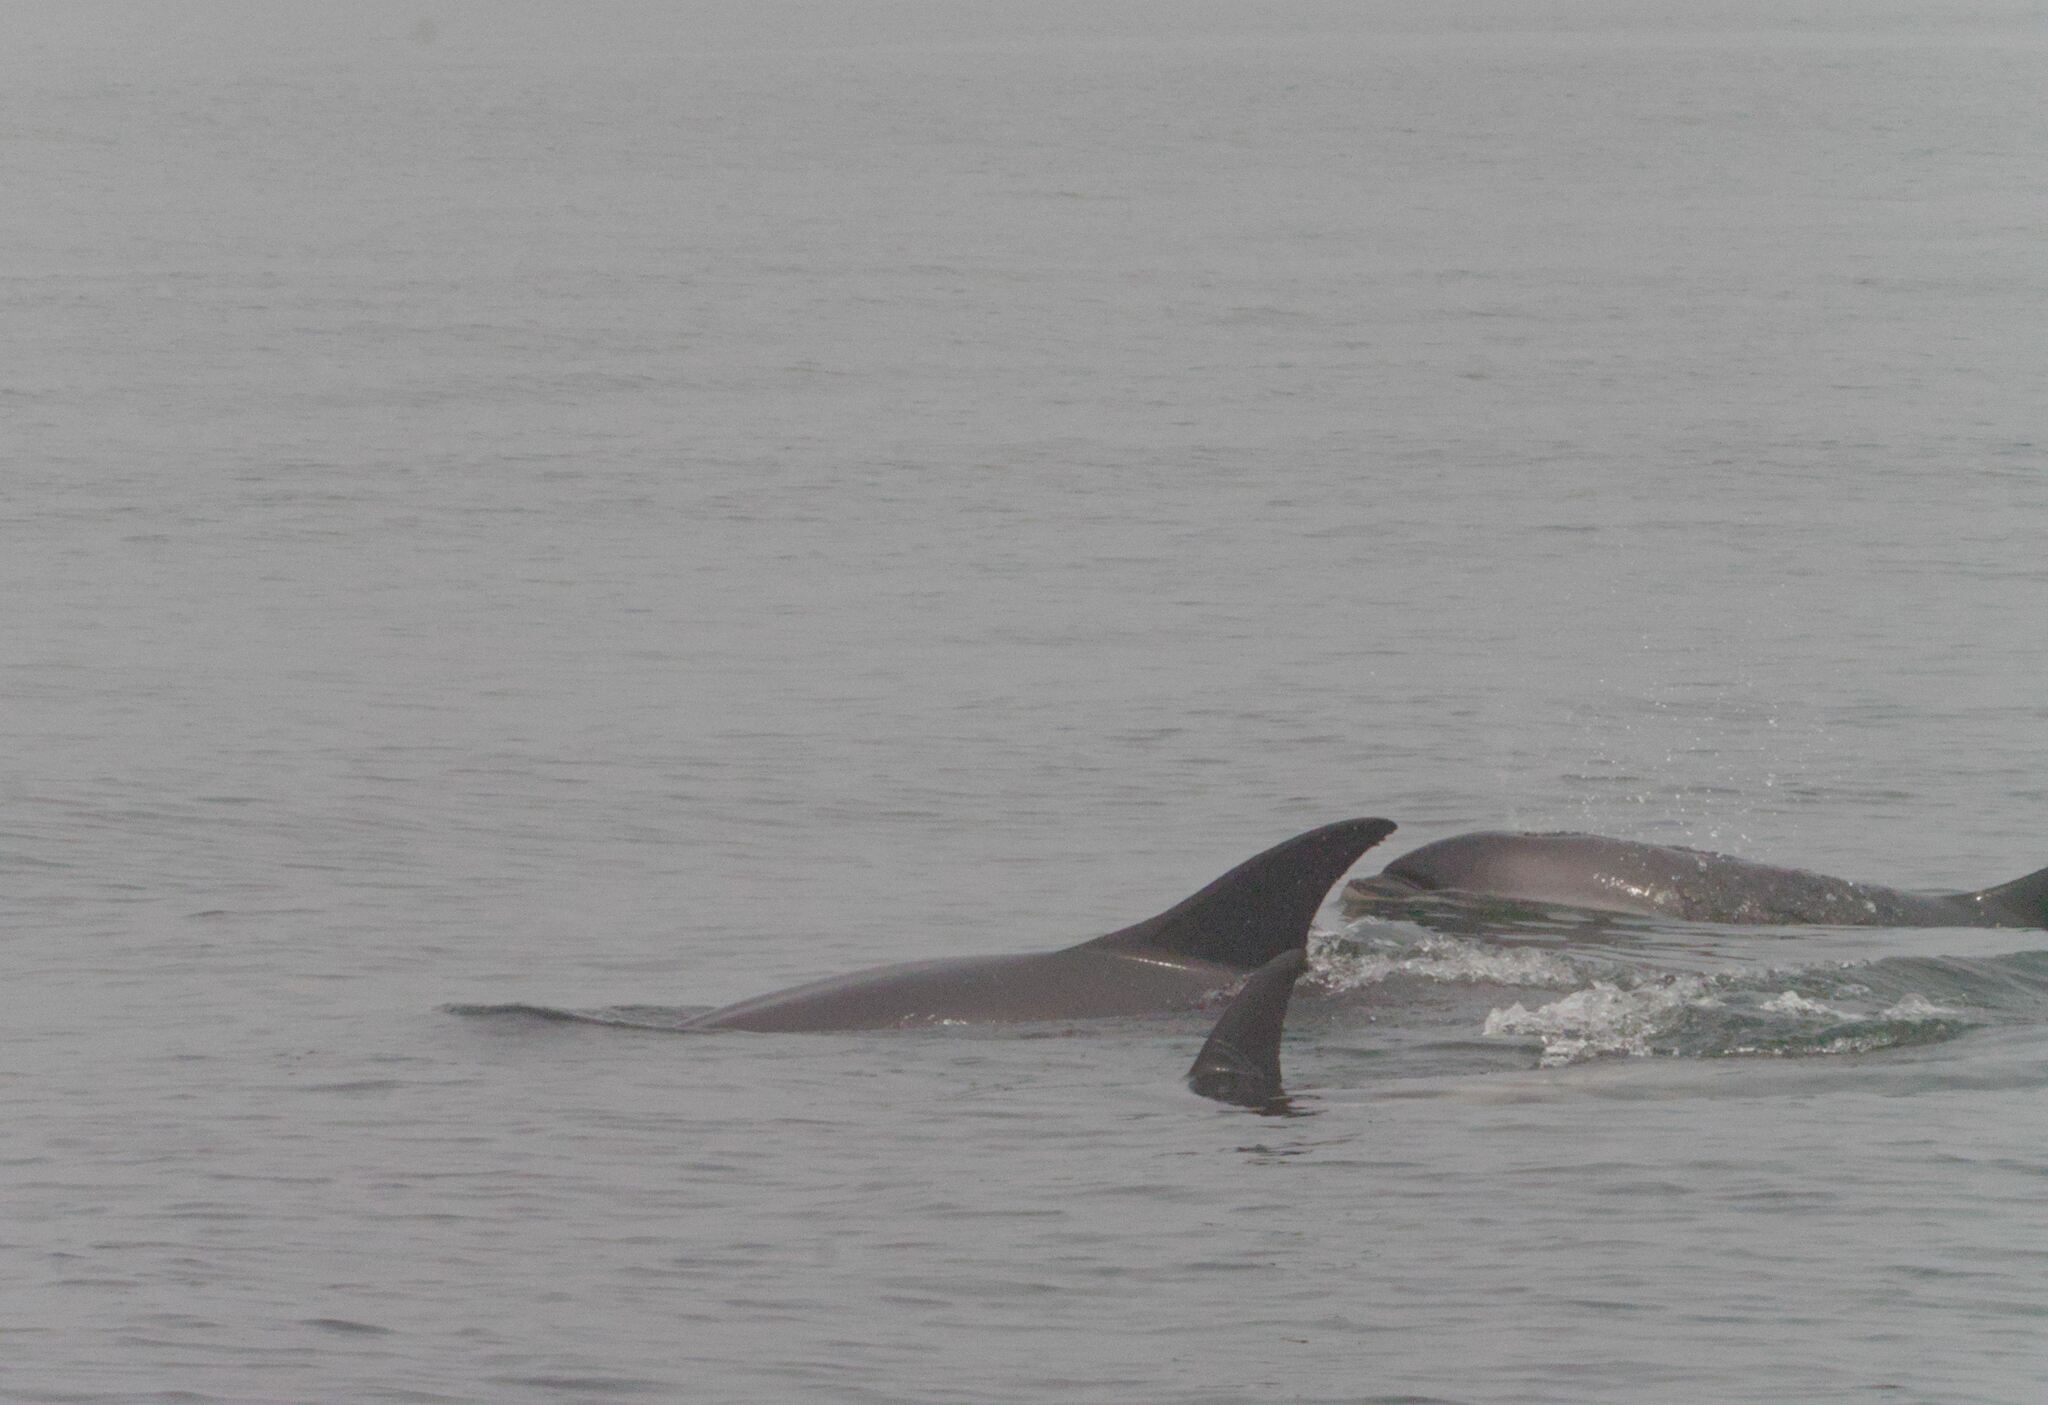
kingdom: Animalia
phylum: Chordata
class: Mammalia
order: Cetacea
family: Delphinidae
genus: Lagenorhynchus
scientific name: Lagenorhynchus acutus
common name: Atlantic white-sided dolphin
